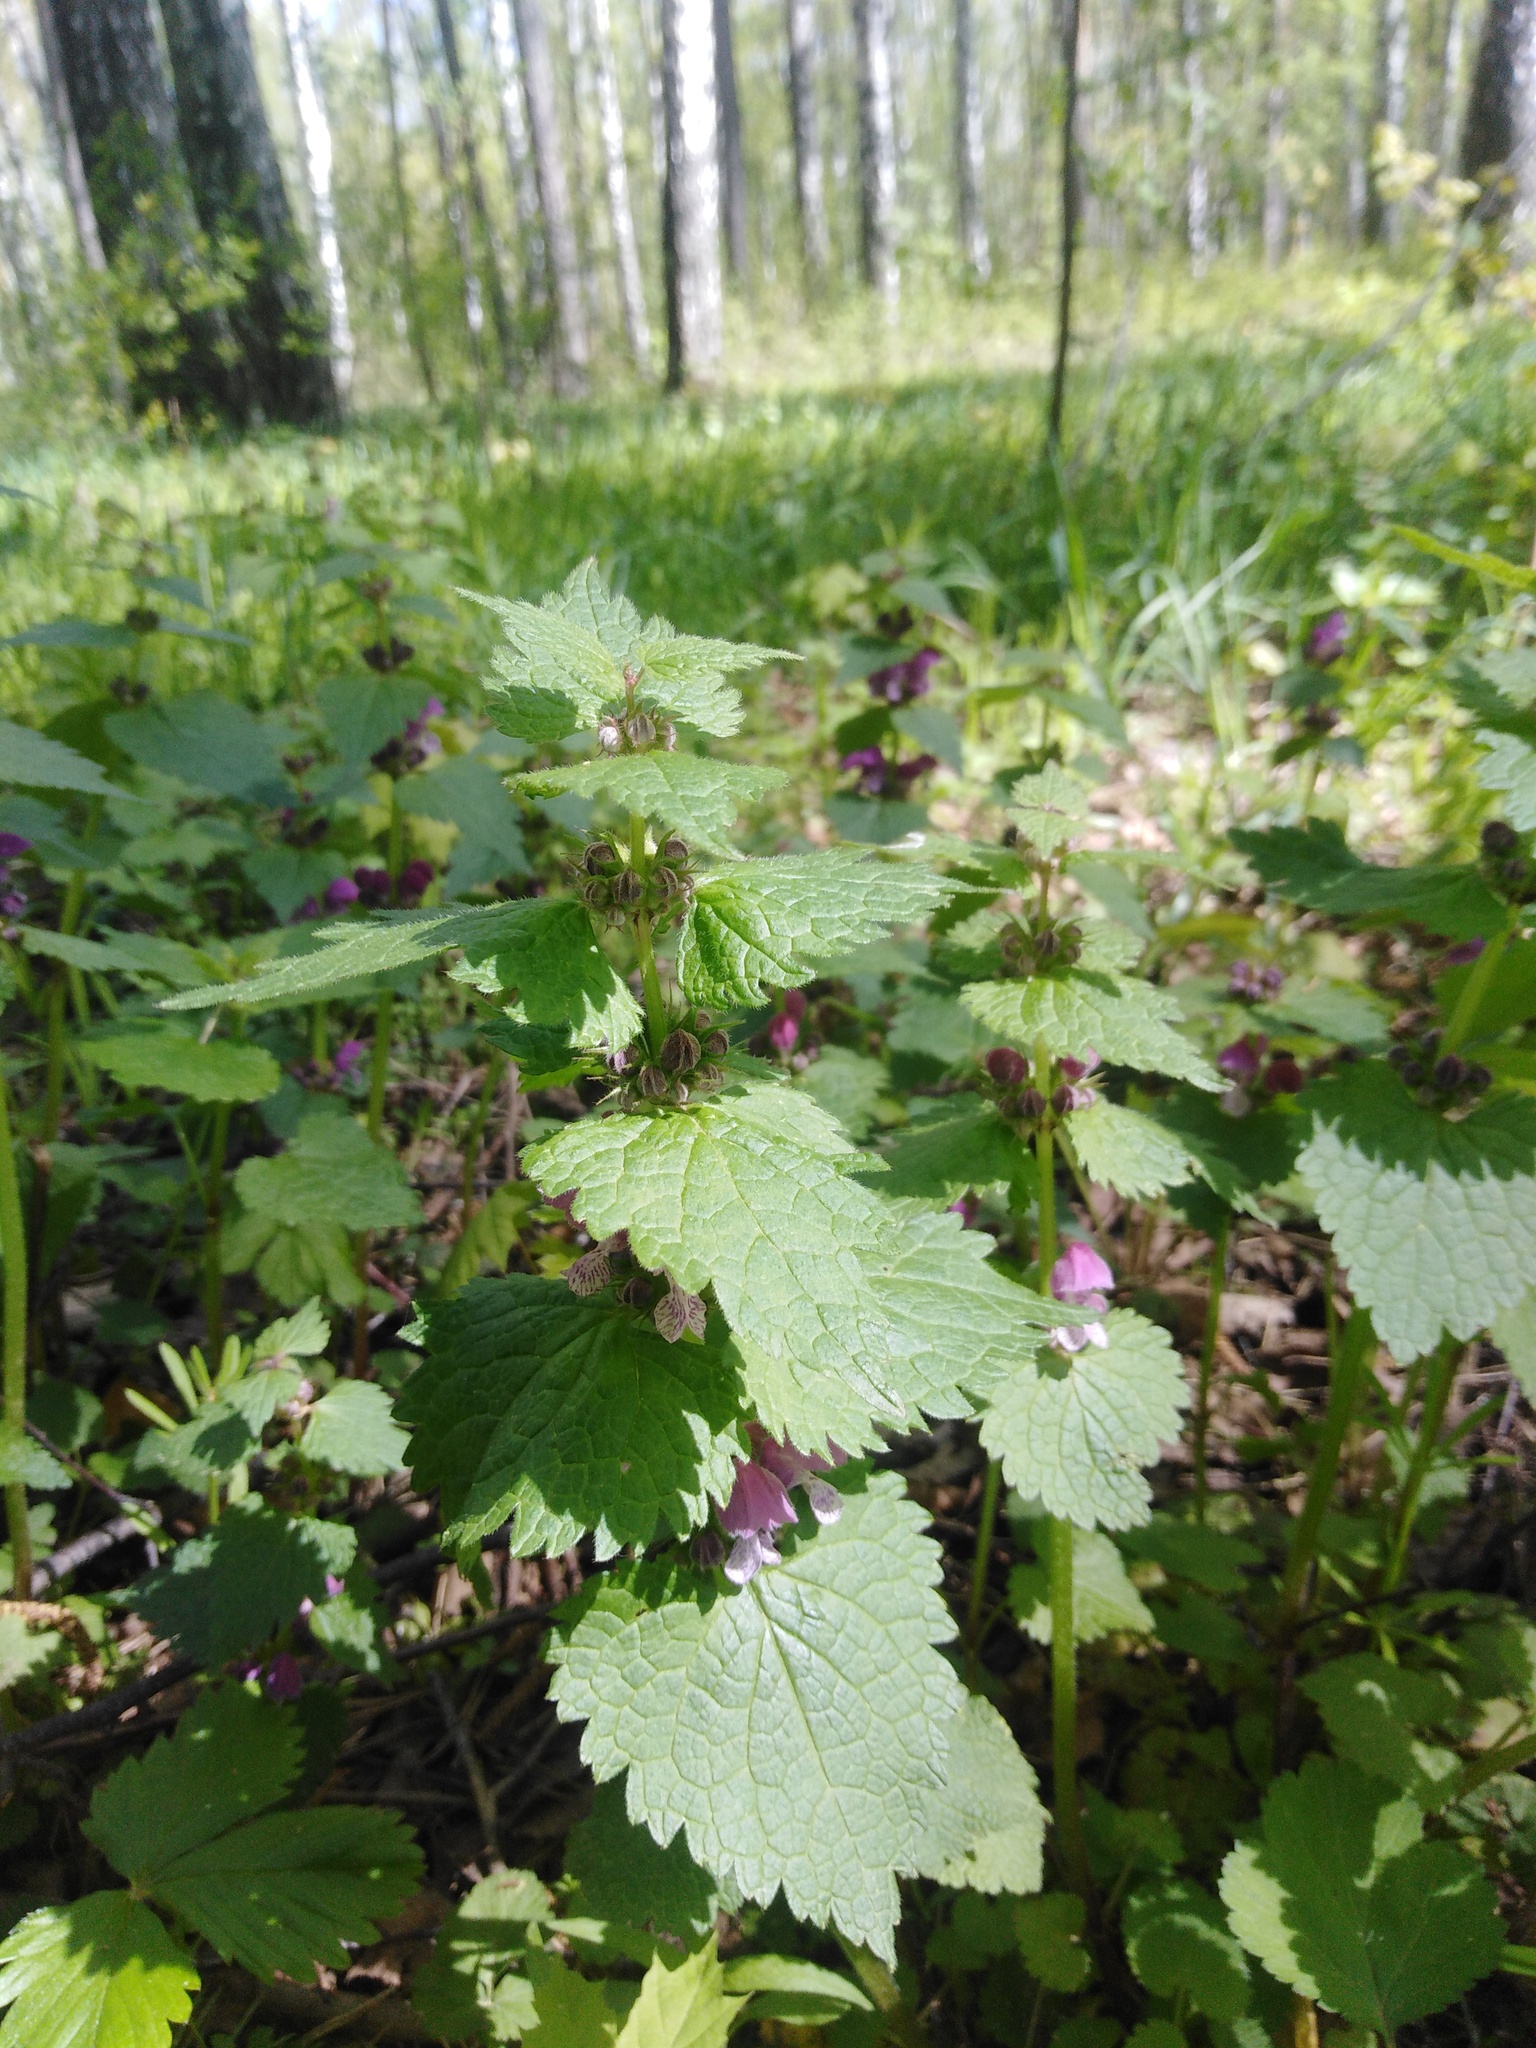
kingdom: Plantae
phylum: Tracheophyta
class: Magnoliopsida
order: Lamiales
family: Lamiaceae
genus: Lamium
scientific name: Lamium maculatum
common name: Spotted dead-nettle
